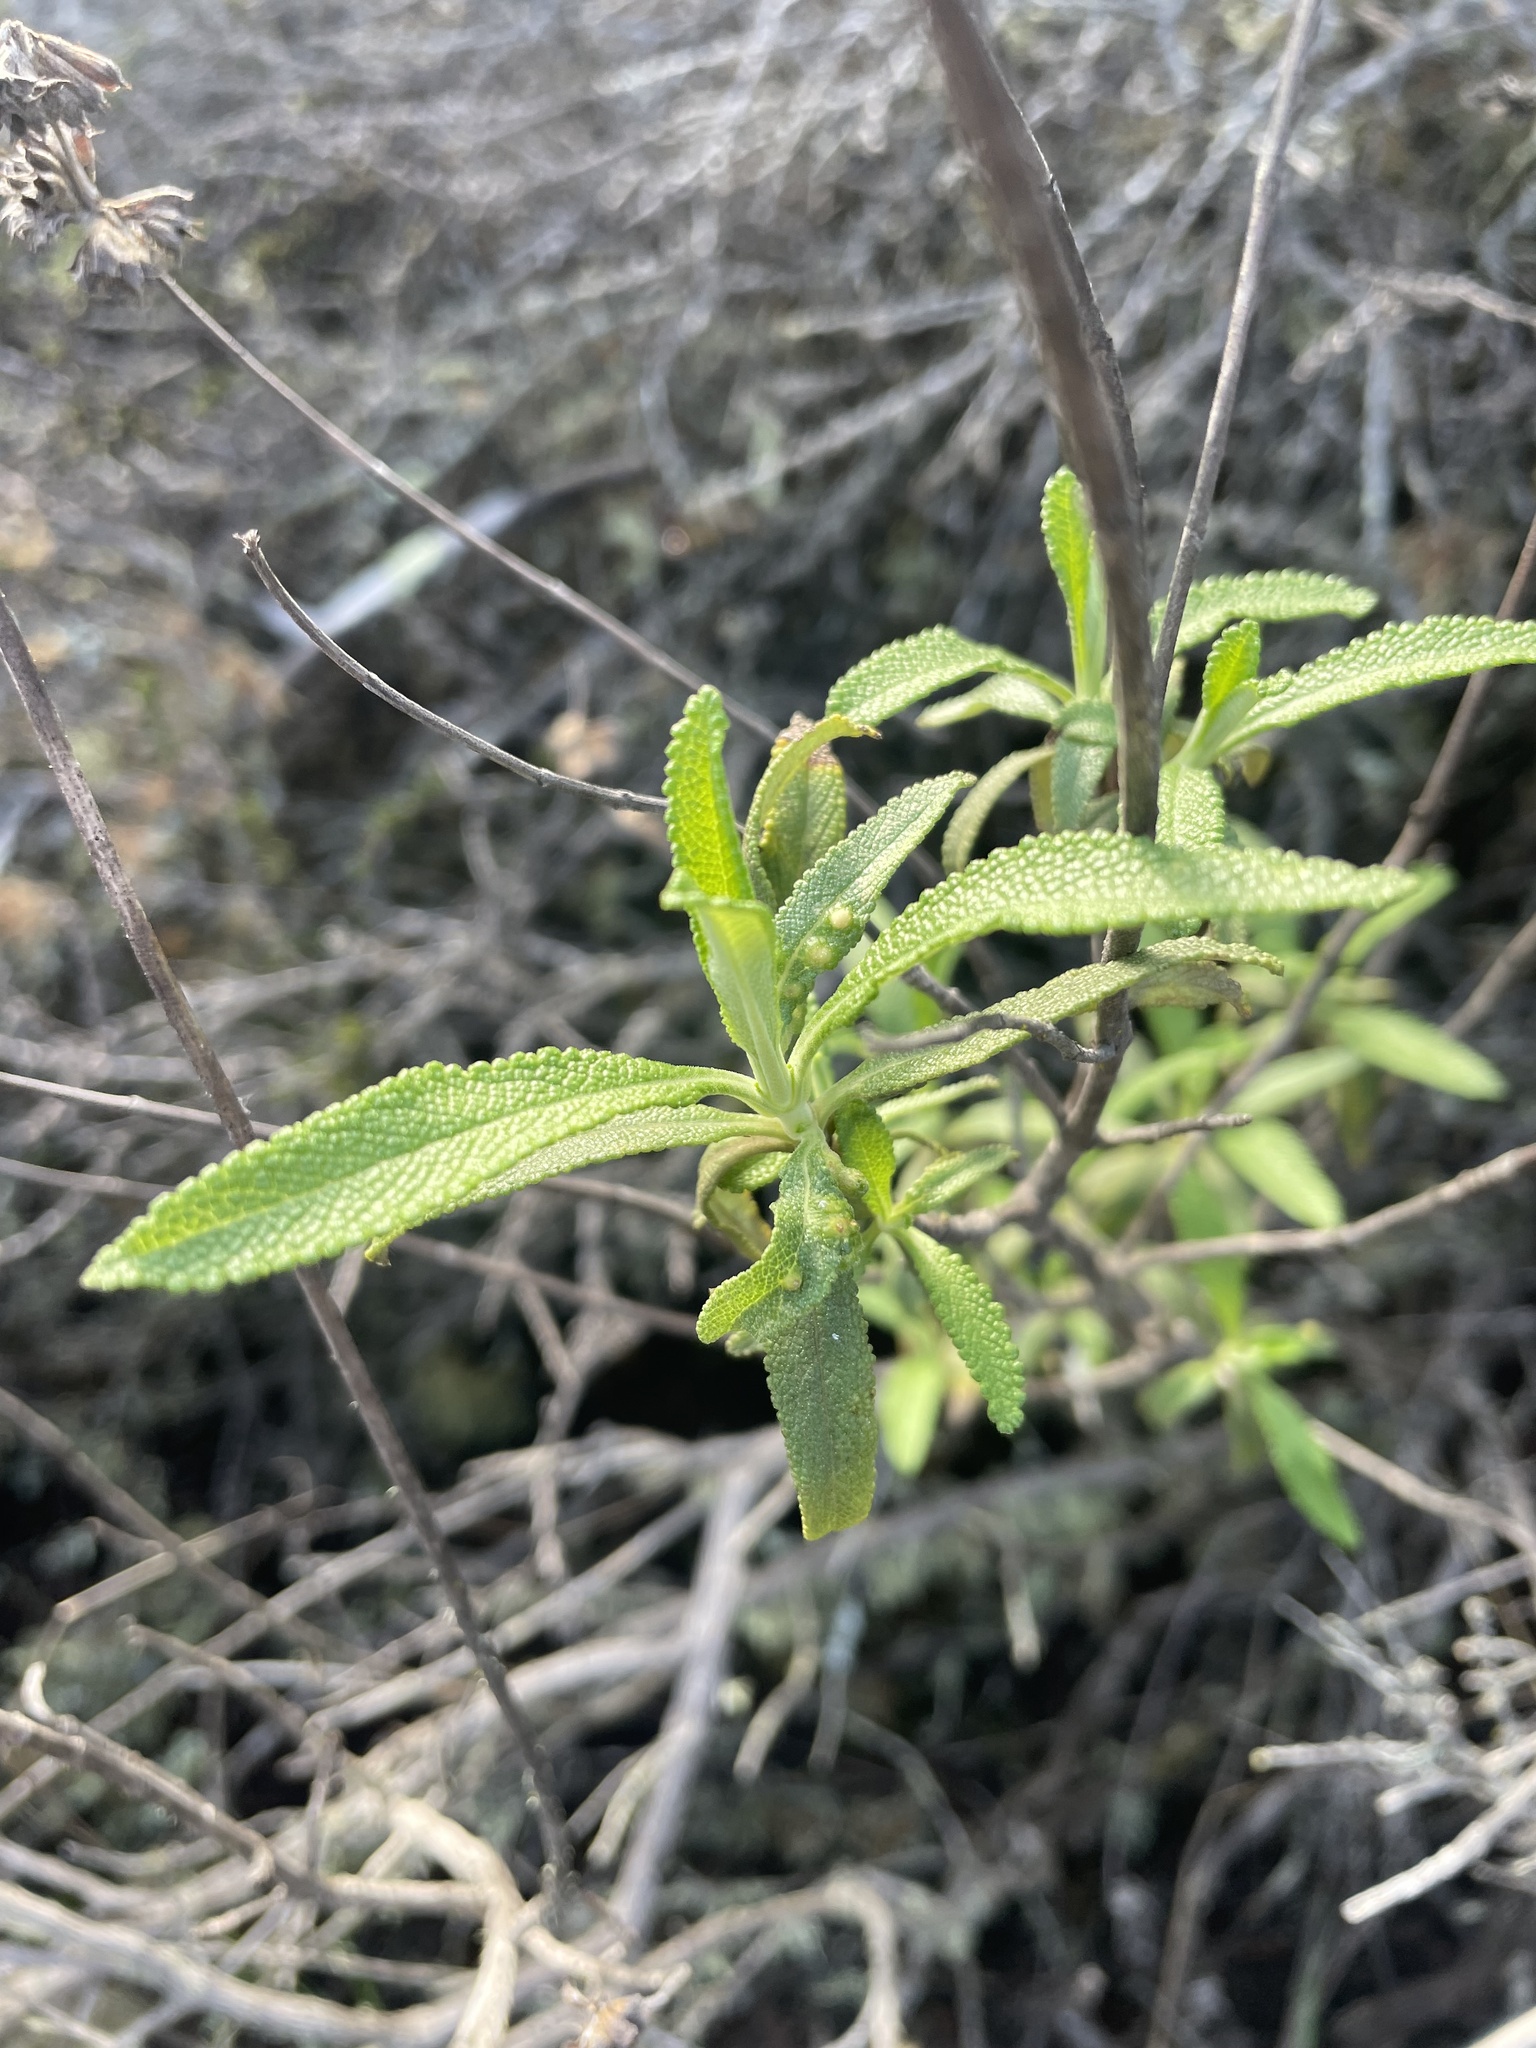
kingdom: Plantae
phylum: Tracheophyta
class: Magnoliopsida
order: Lamiales
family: Lamiaceae
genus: Salvia
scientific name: Salvia mellifera
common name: Black sage
